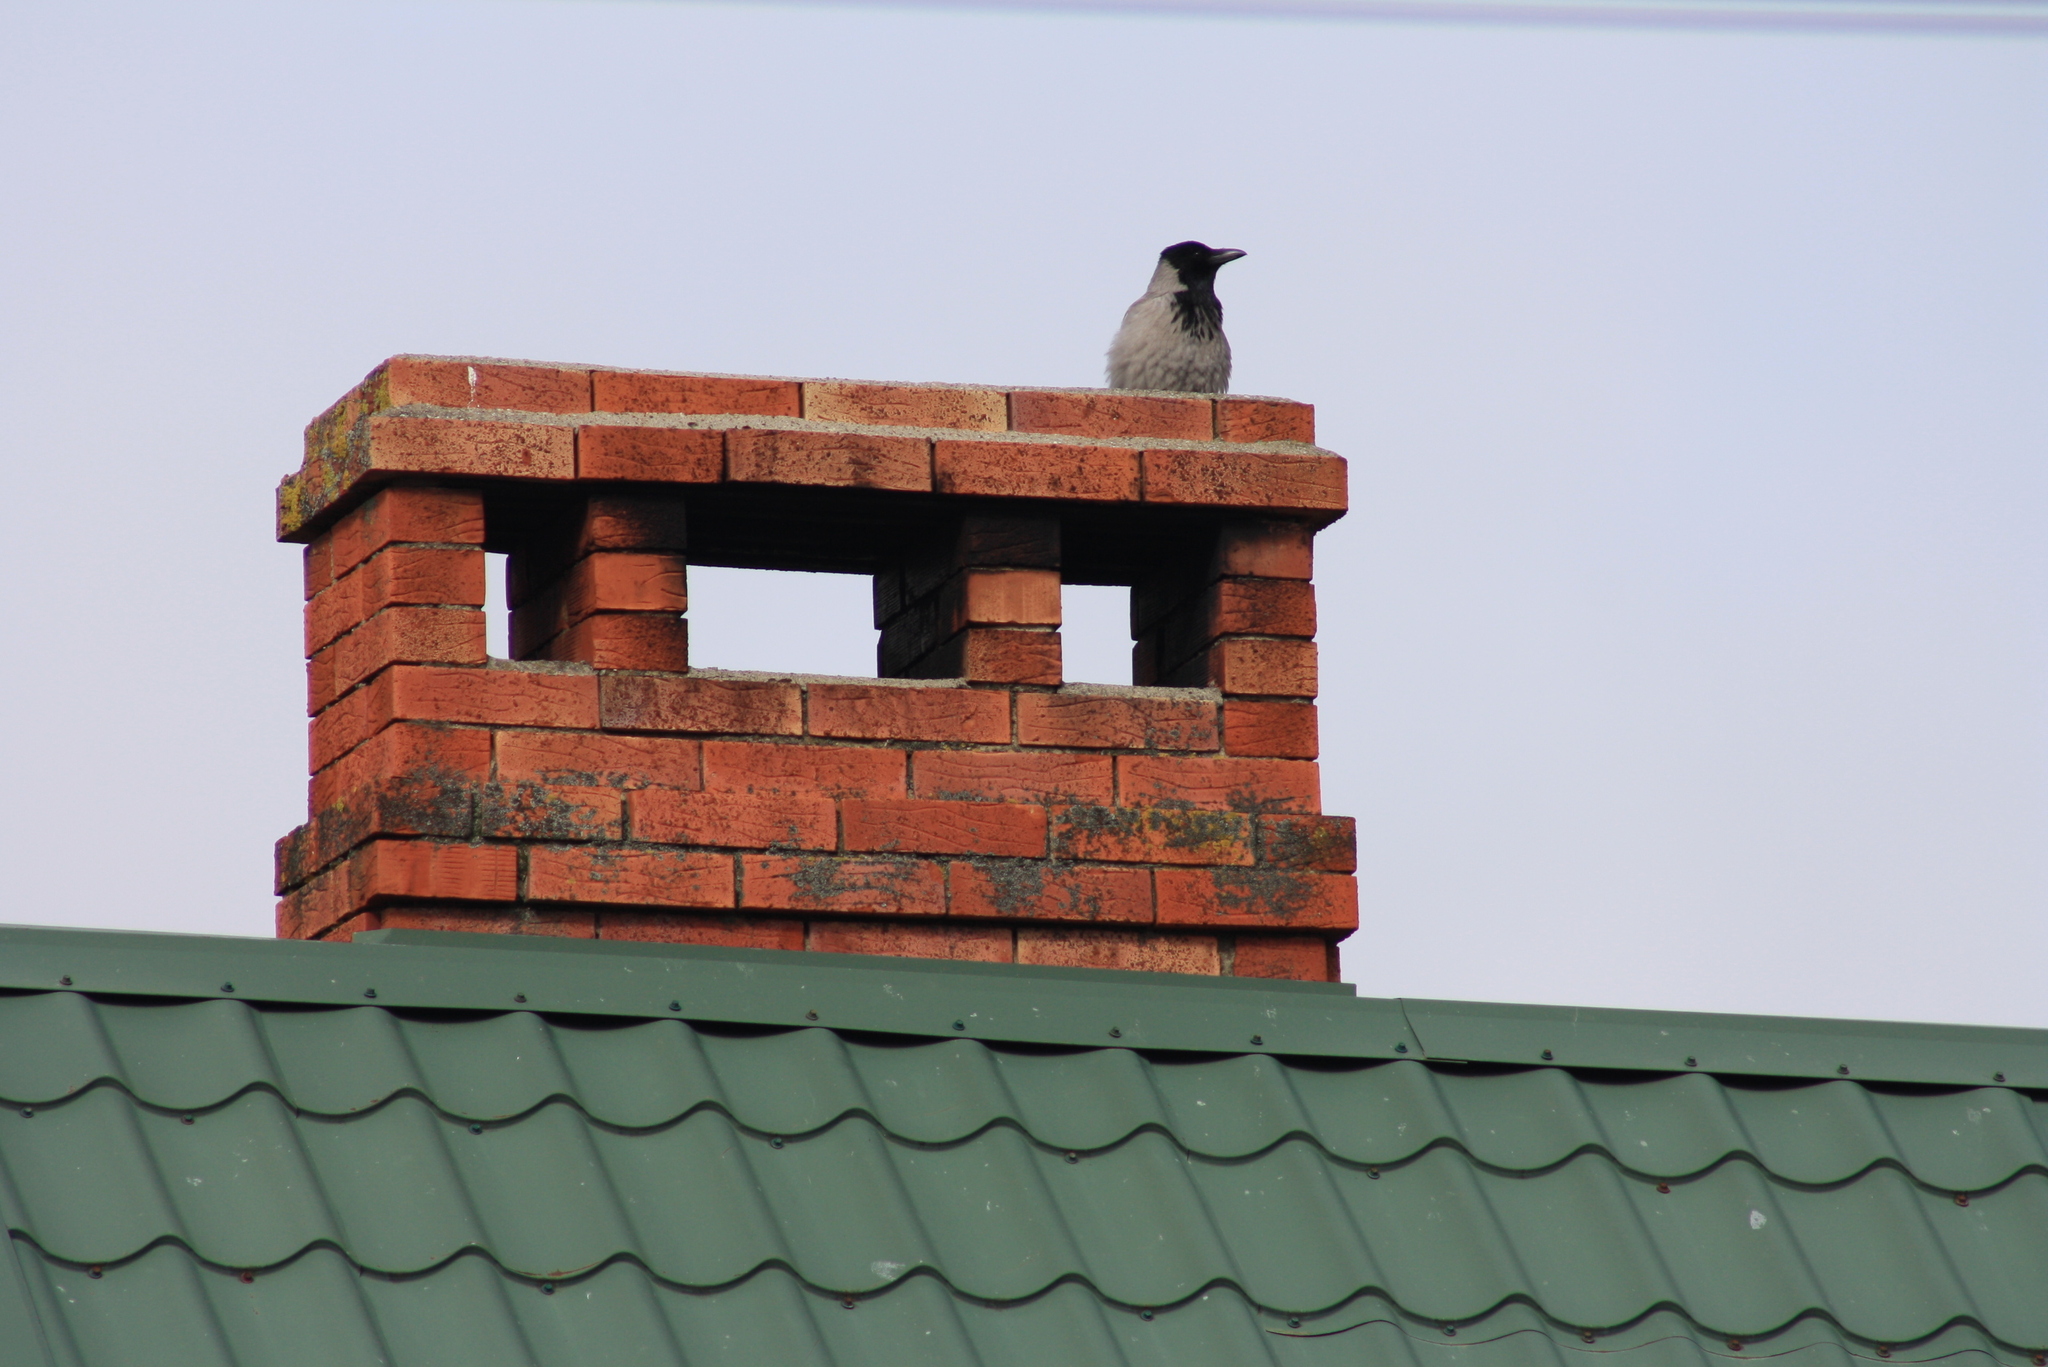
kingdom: Animalia
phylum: Chordata
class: Aves
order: Passeriformes
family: Corvidae
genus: Corvus
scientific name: Corvus cornix
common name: Hooded crow
